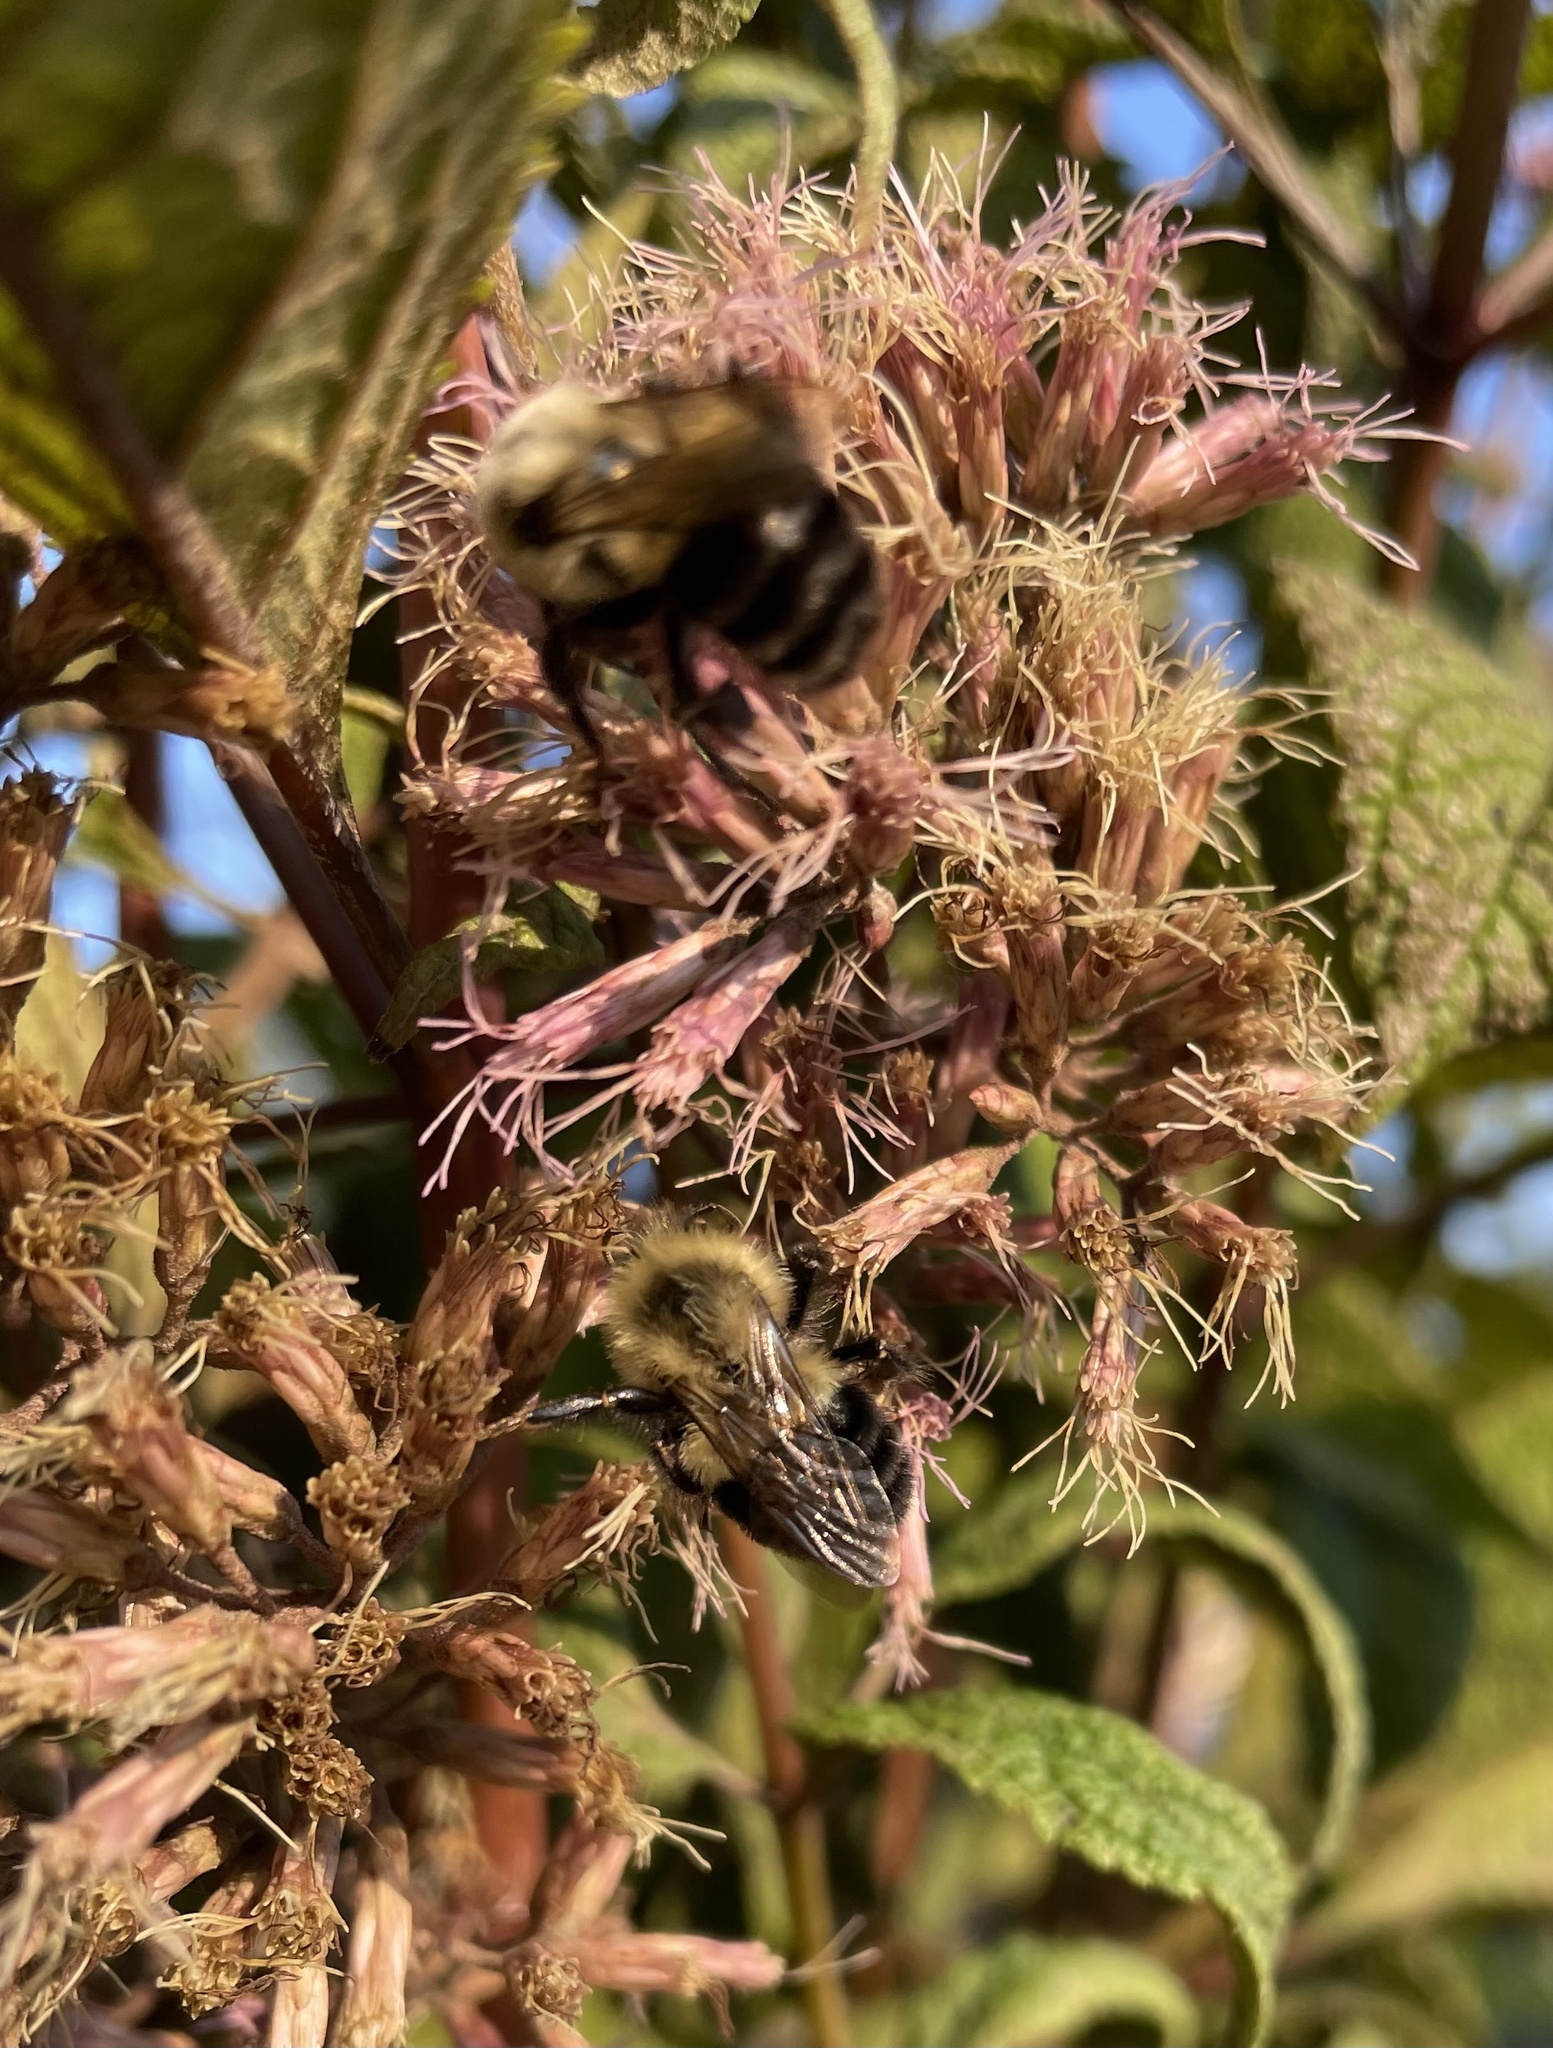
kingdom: Animalia
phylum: Arthropoda
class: Insecta
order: Hymenoptera
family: Apidae
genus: Bombus
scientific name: Bombus impatiens
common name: Common eastern bumble bee
